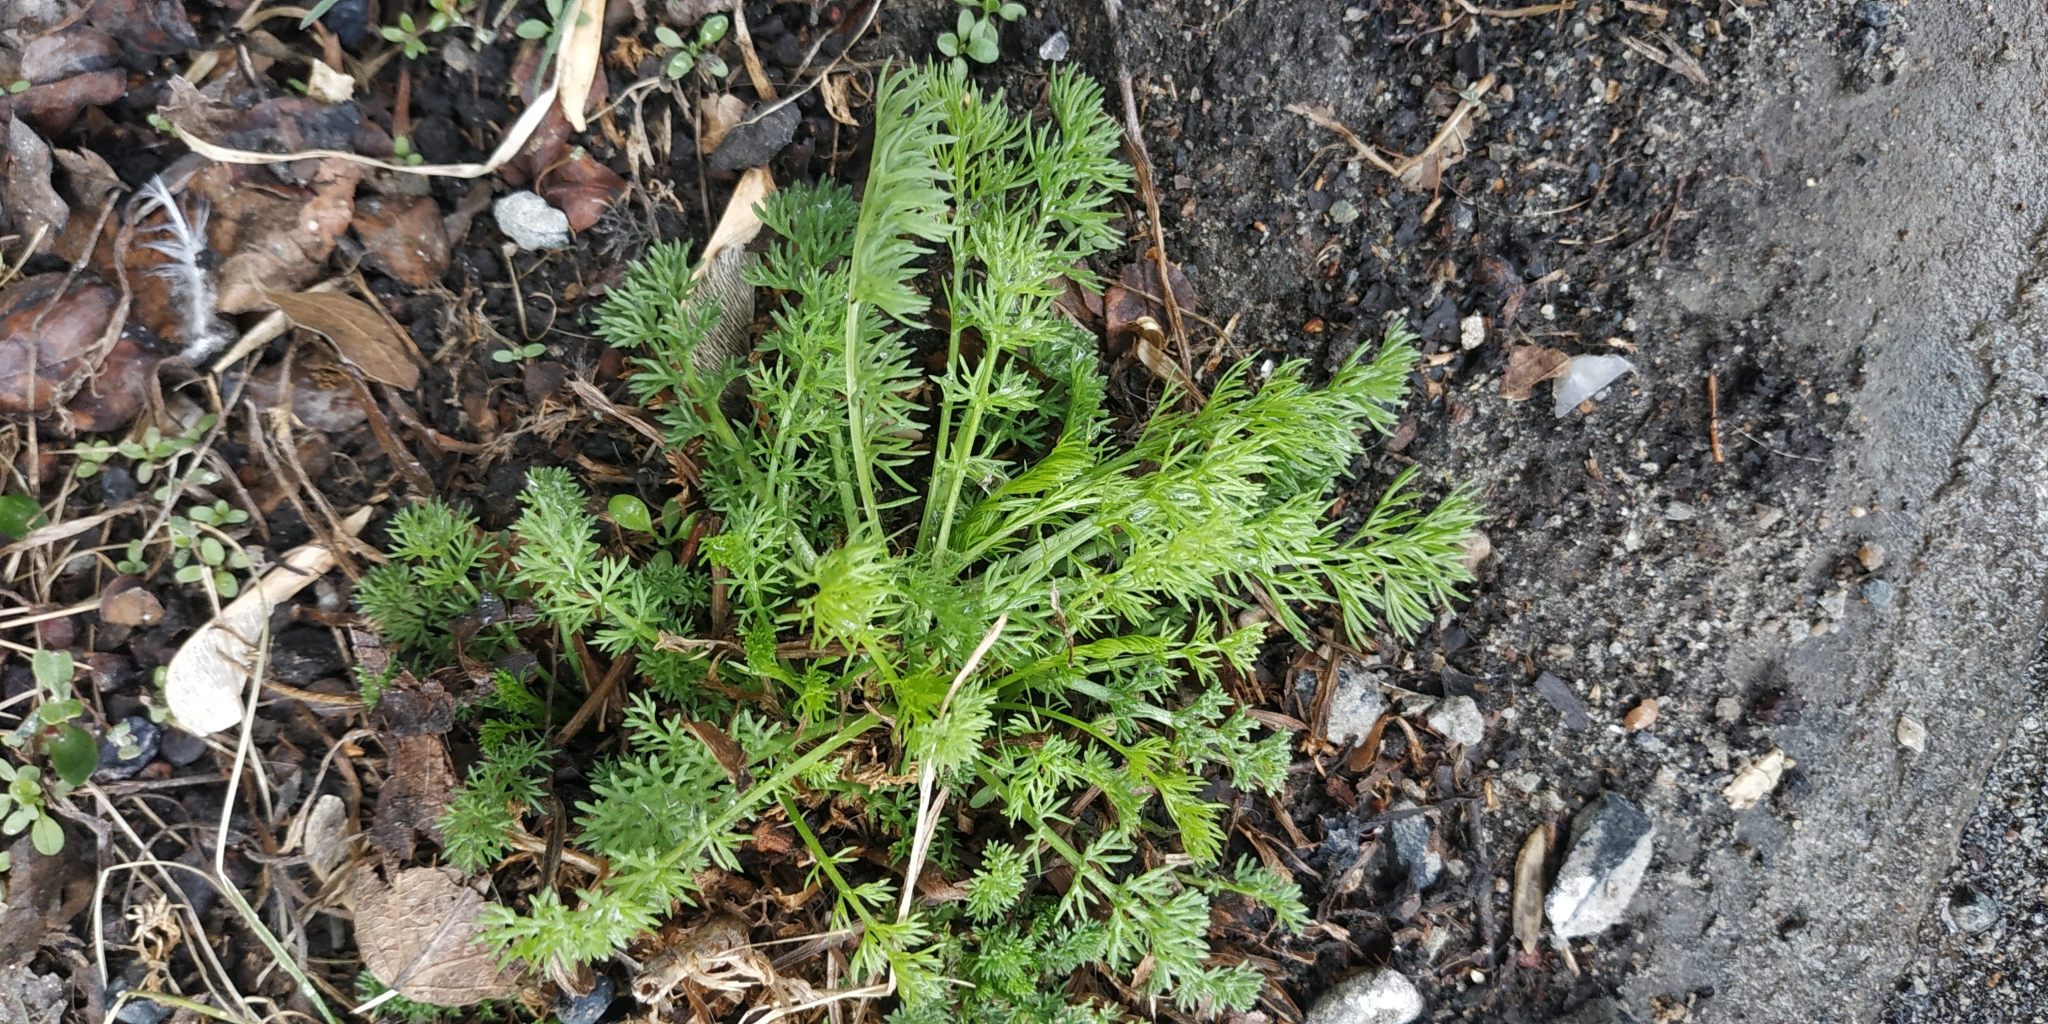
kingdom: Plantae
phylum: Tracheophyta
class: Magnoliopsida
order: Asterales
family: Asteraceae
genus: Tripleurospermum
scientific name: Tripleurospermum inodorum
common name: Scentless mayweed
